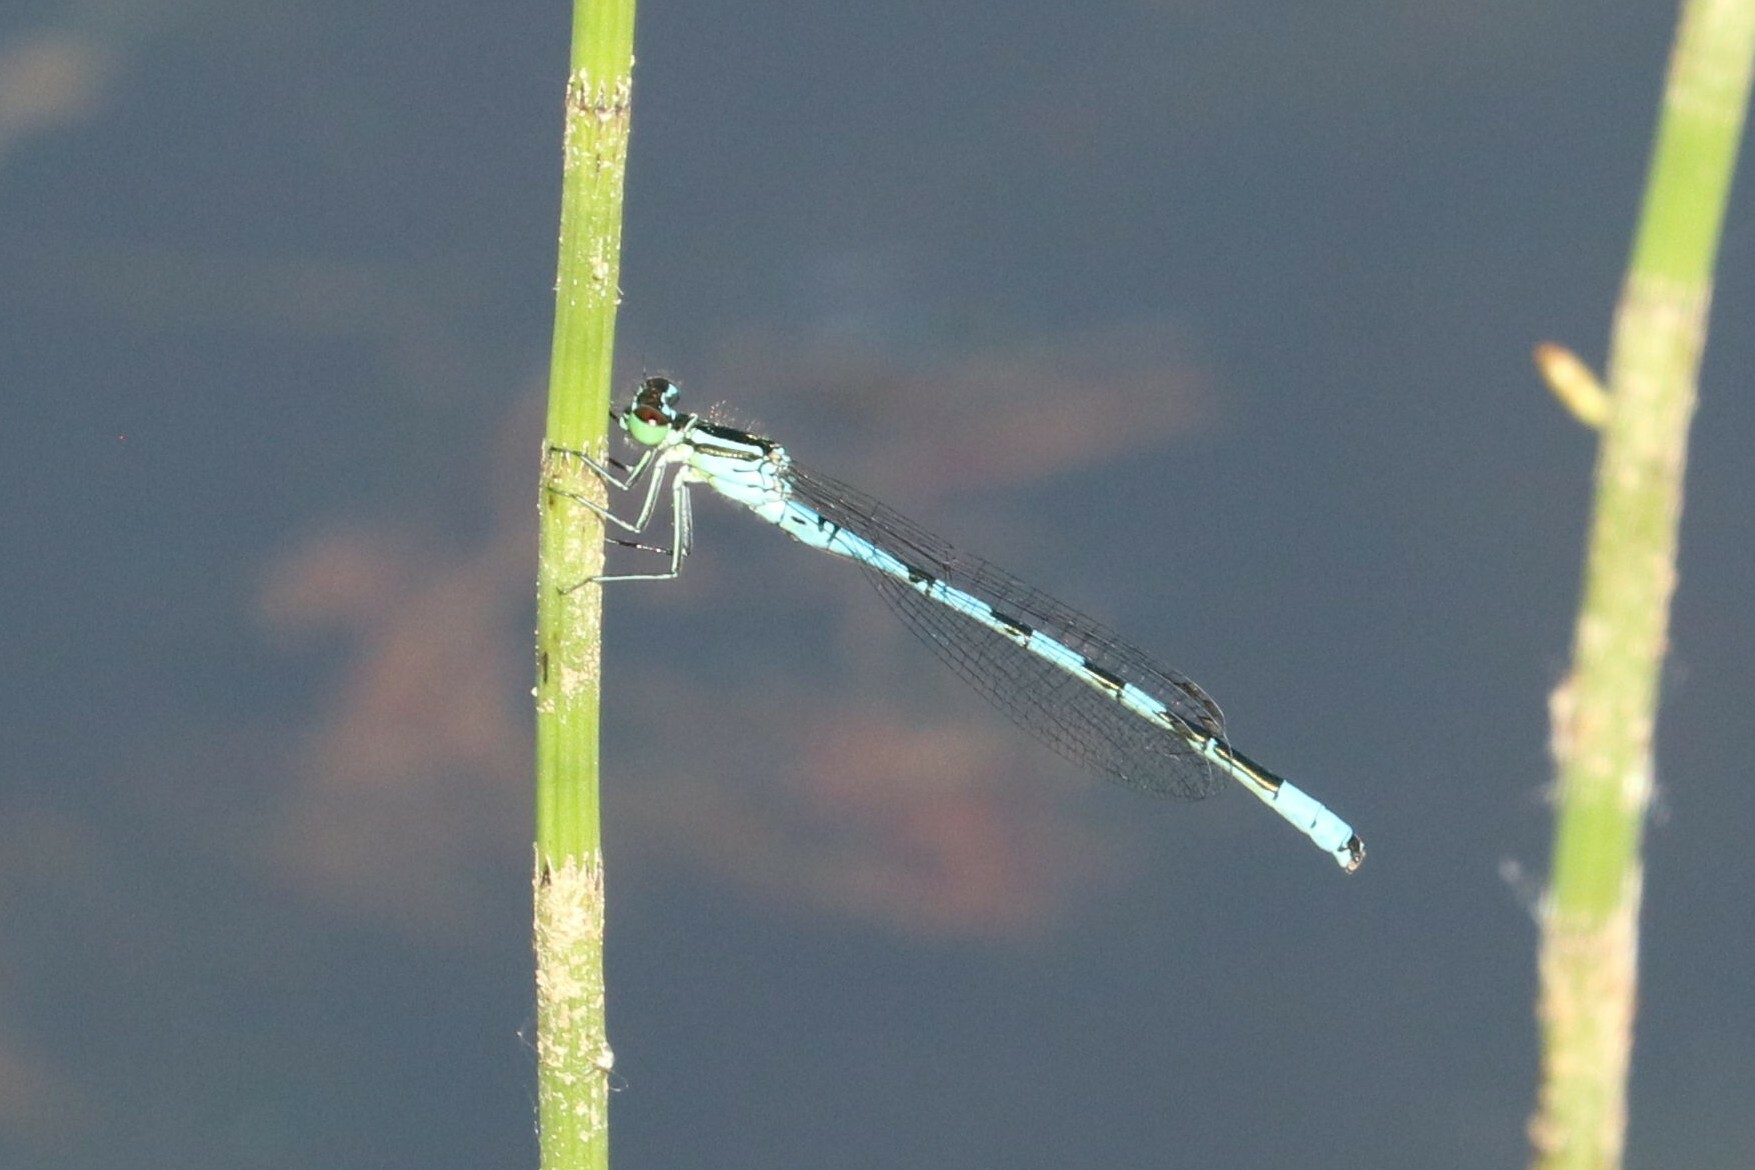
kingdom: Animalia
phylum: Arthropoda
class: Insecta
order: Odonata
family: Coenagrionidae
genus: Coenagrion
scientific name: Coenagrion hastulatum
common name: Spearhead bluet
